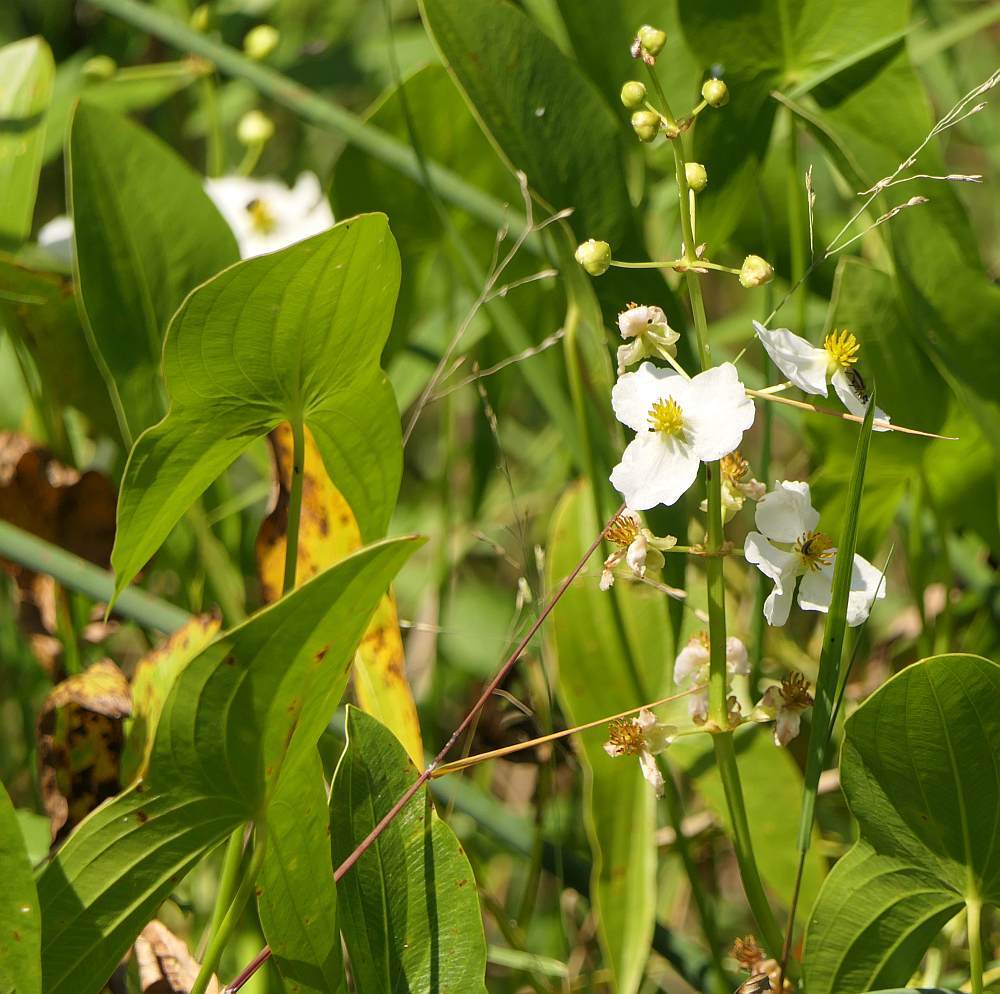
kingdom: Plantae
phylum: Tracheophyta
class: Liliopsida
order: Alismatales
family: Alismataceae
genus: Sagittaria
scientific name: Sagittaria latifolia
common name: Duck-potato
